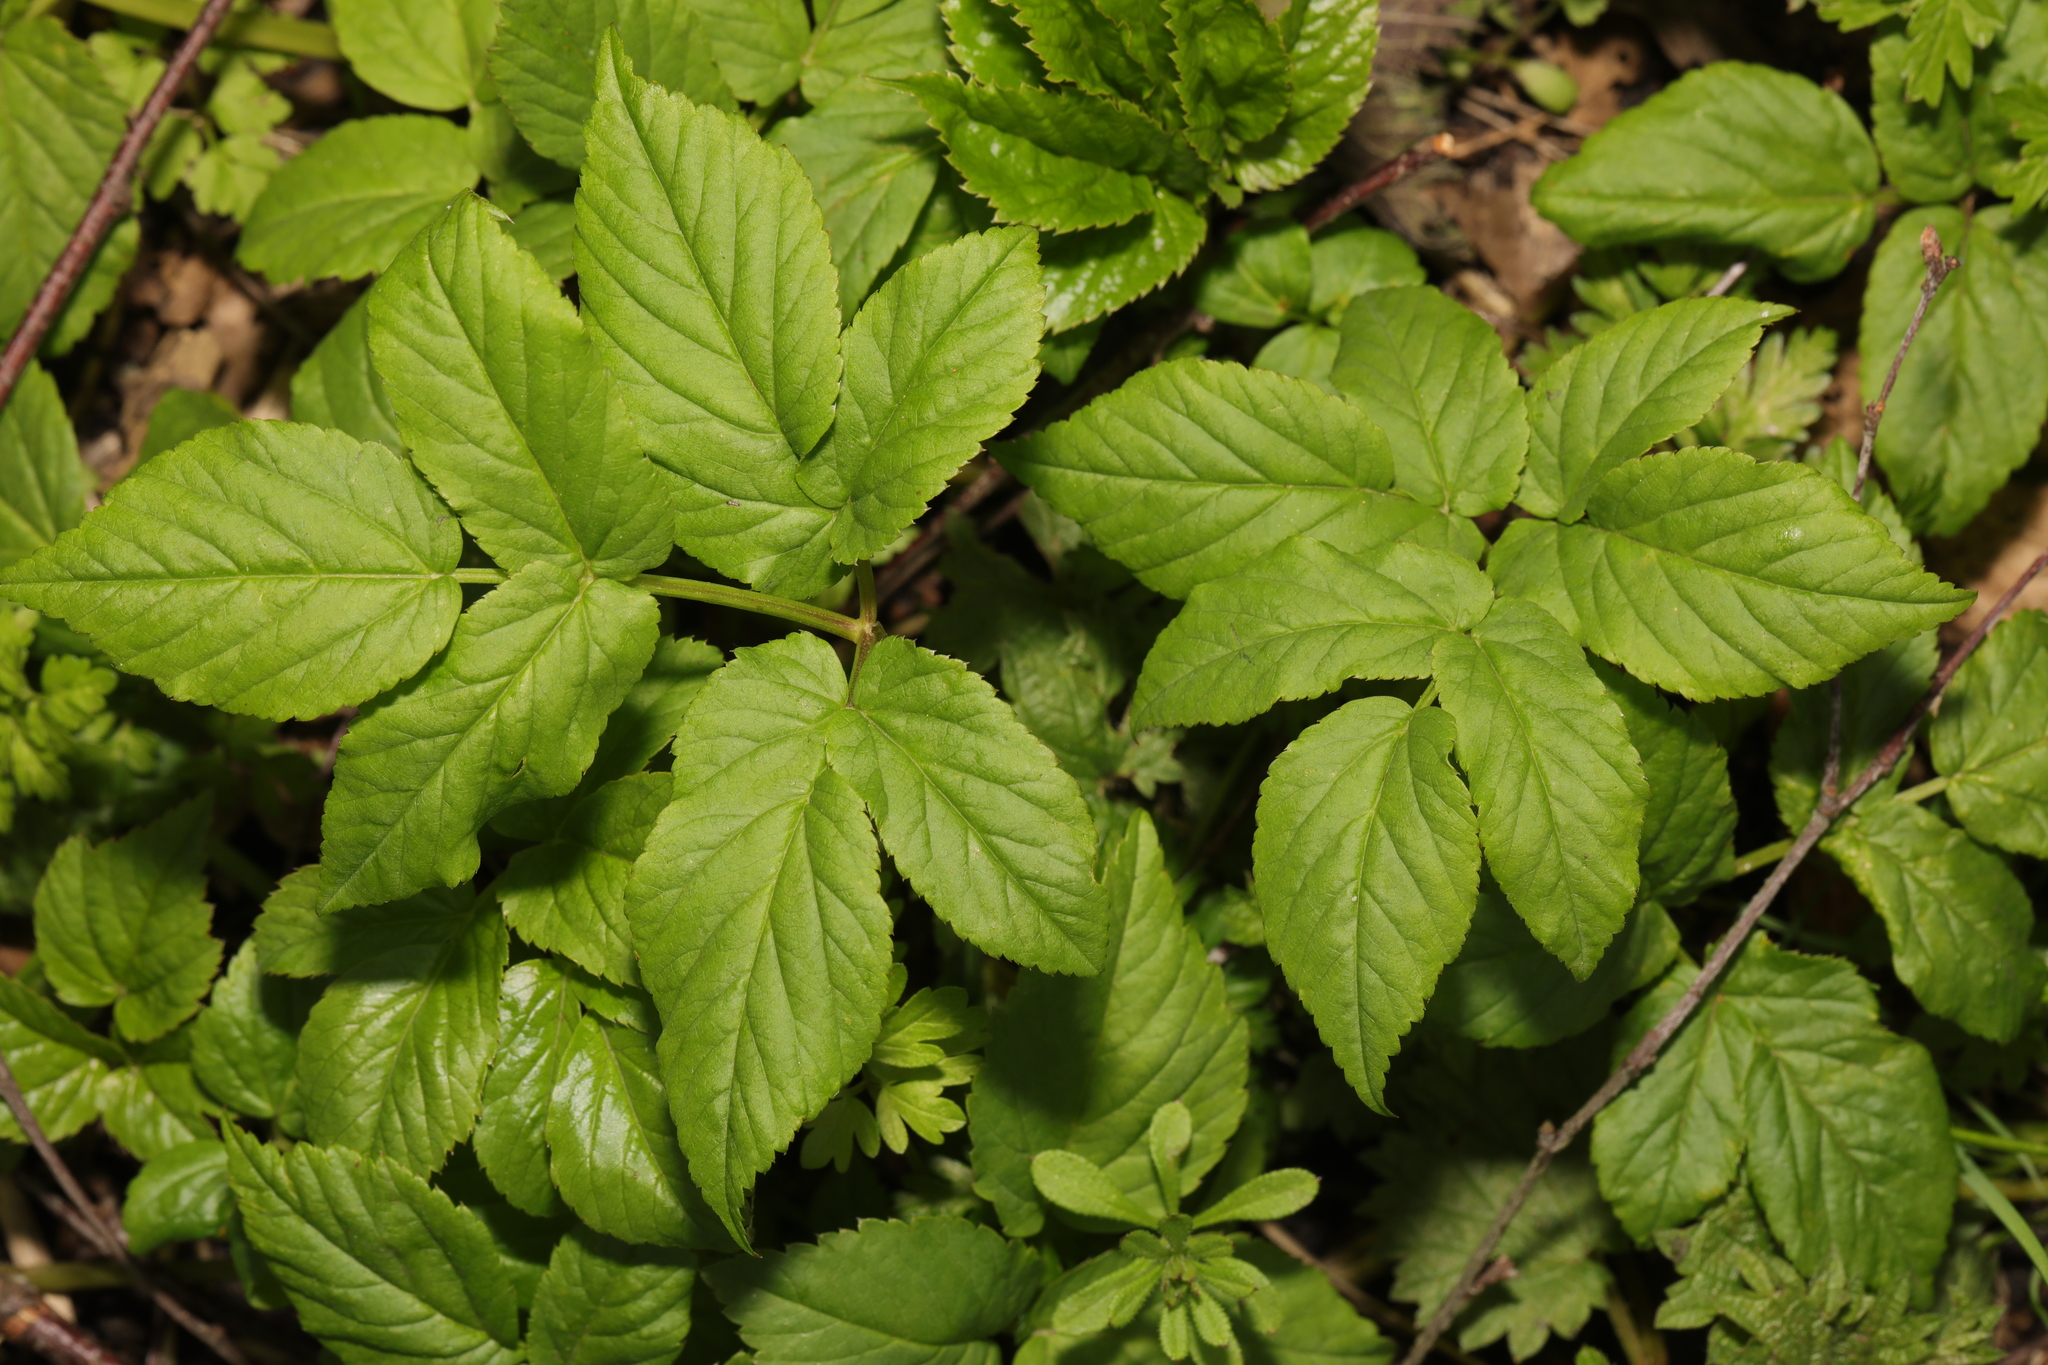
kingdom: Plantae
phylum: Tracheophyta
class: Magnoliopsida
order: Apiales
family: Apiaceae
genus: Aegopodium
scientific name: Aegopodium podagraria
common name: Ground-elder
